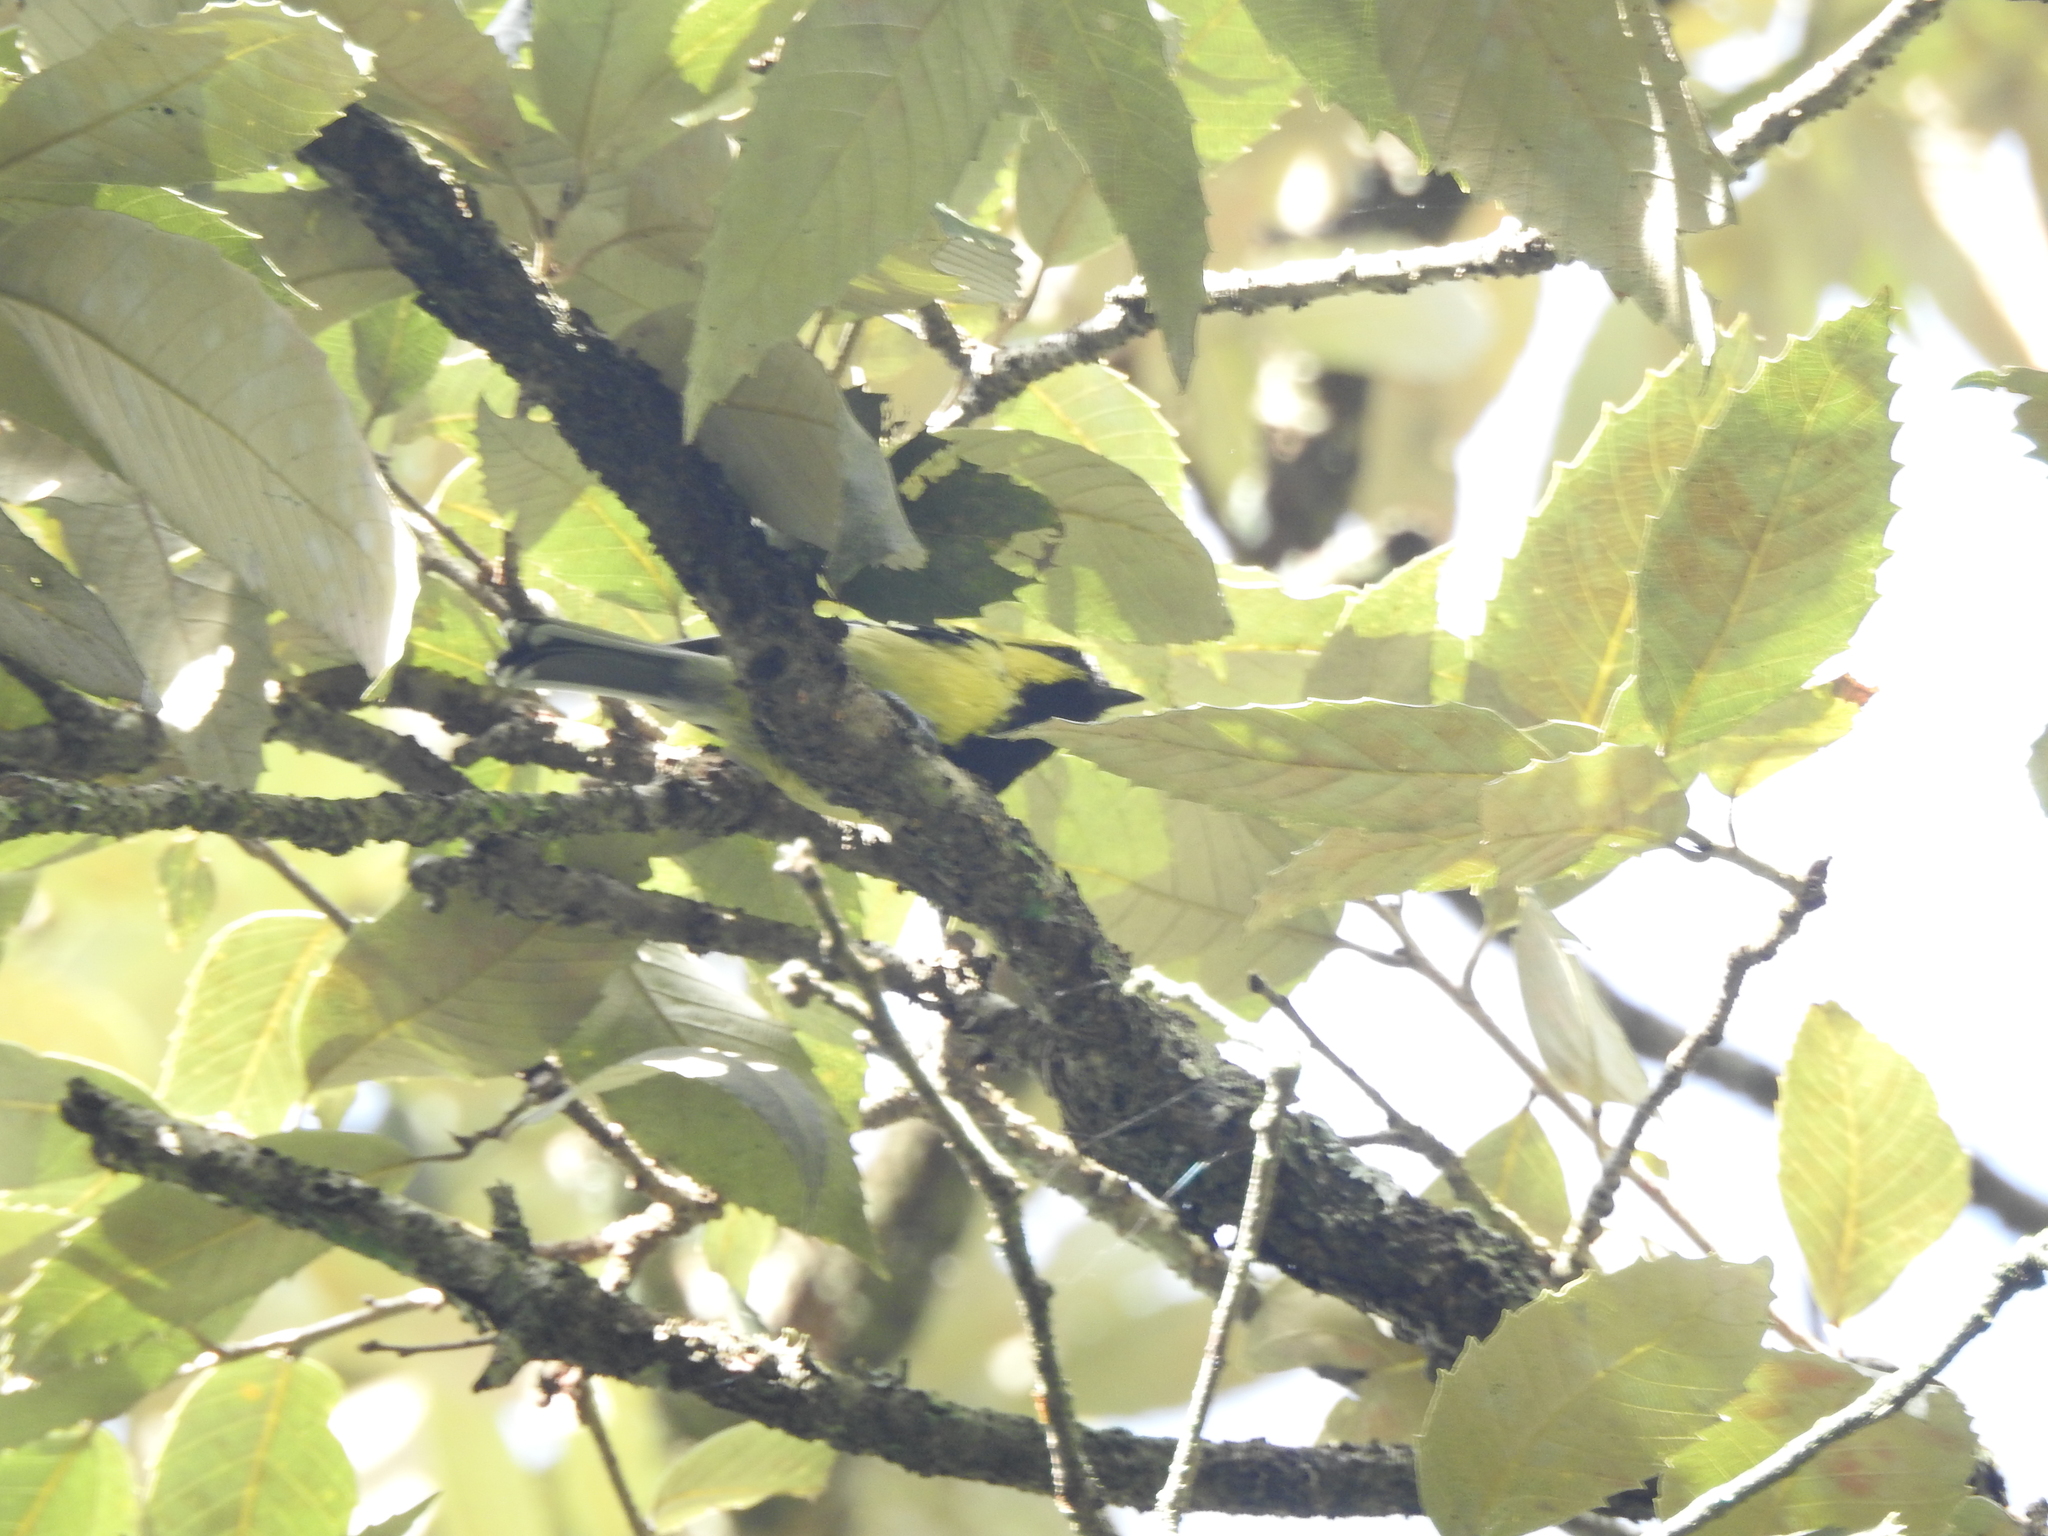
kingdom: Animalia
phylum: Chordata
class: Aves
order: Passeriformes
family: Paridae
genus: Parus
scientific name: Parus xanthogenys
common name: Black-lored tit
